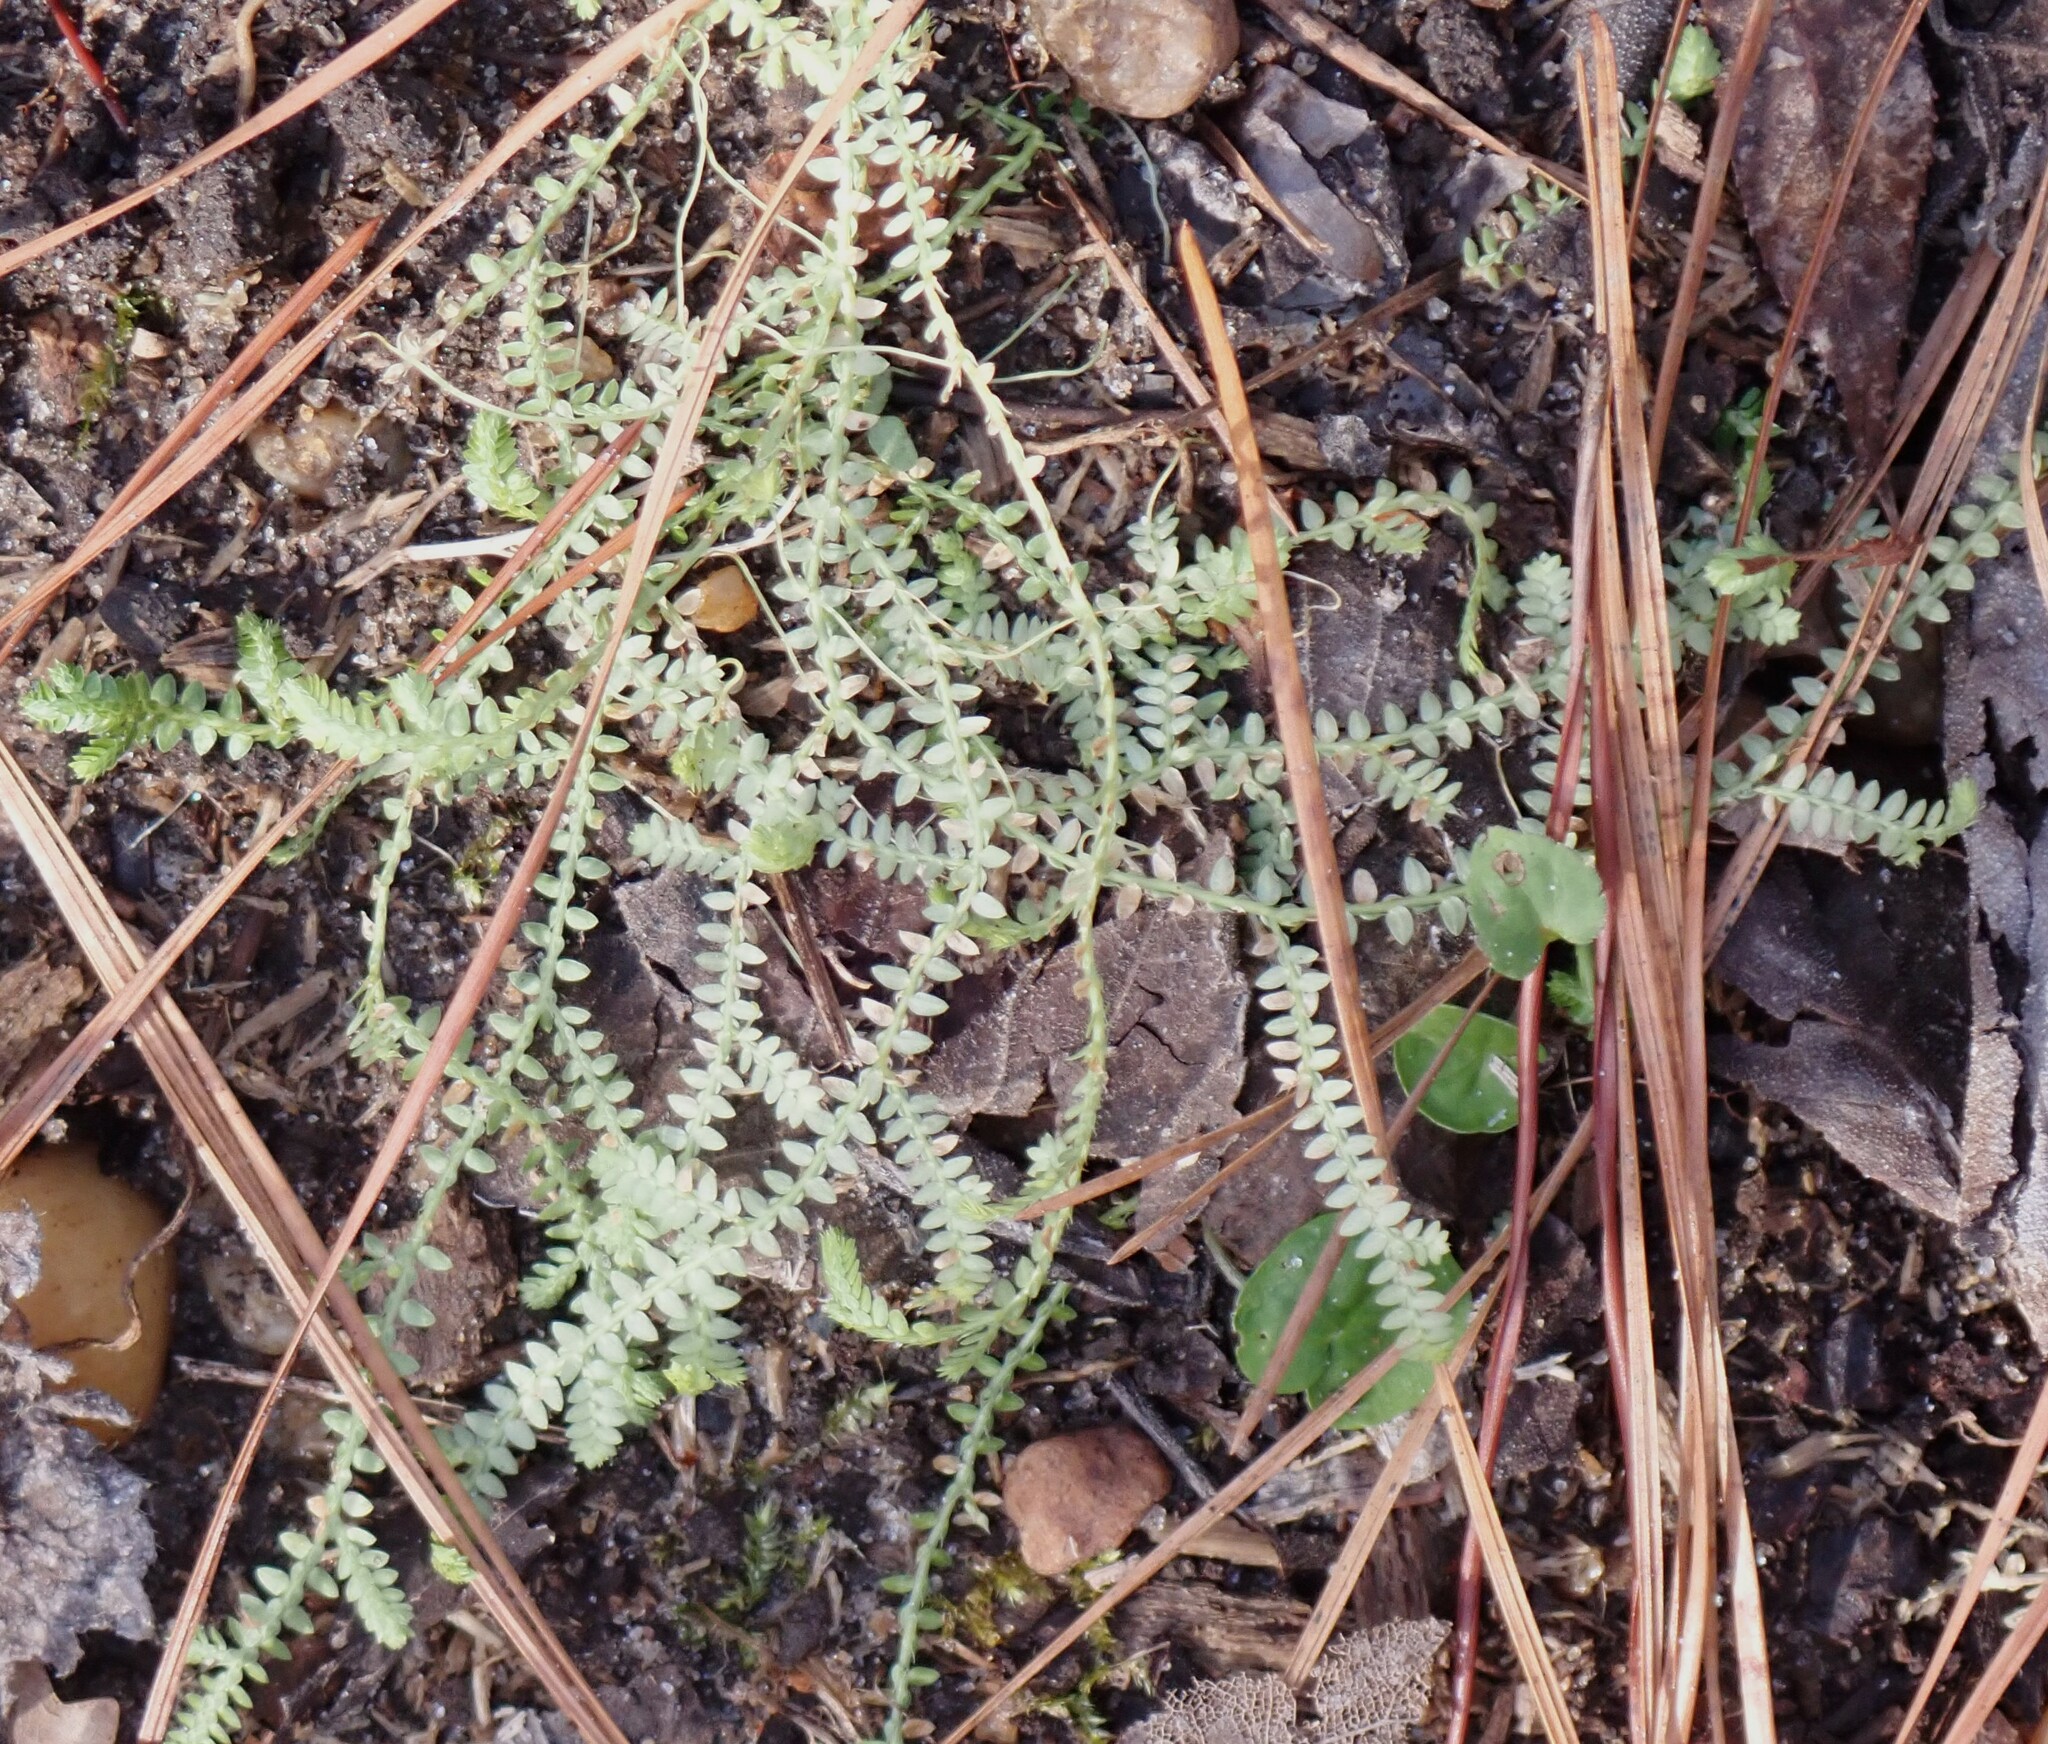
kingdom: Plantae
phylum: Tracheophyta
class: Lycopodiopsida
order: Selaginellales
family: Selaginellaceae
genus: Selaginella
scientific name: Selaginella ludoviciana
